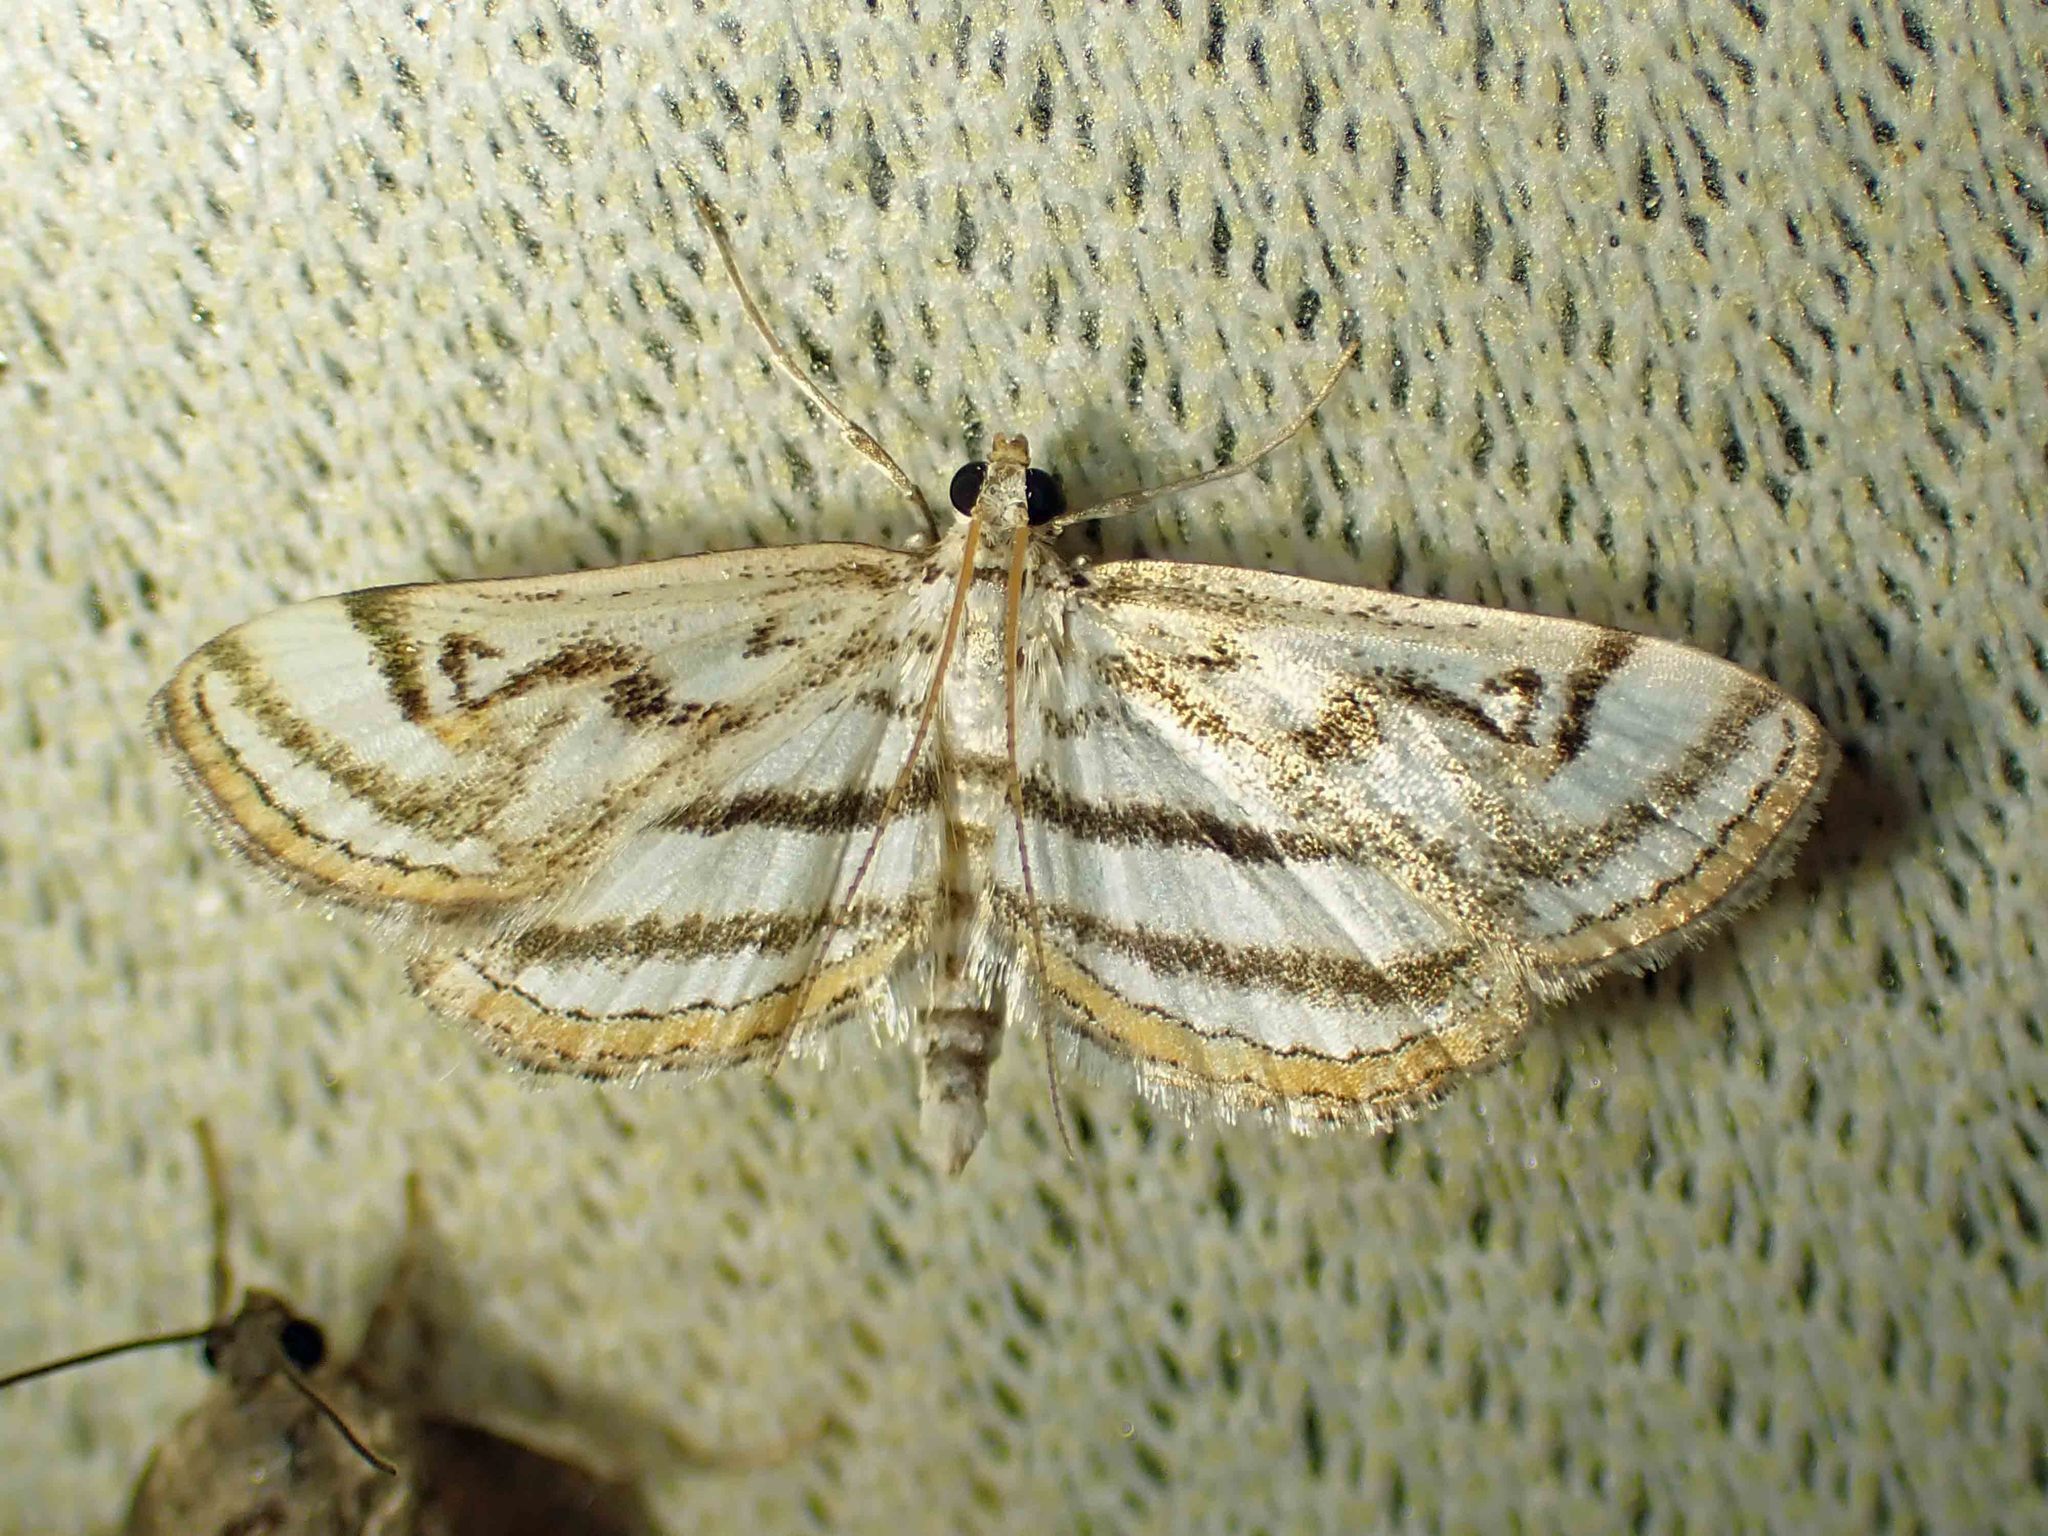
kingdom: Animalia
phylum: Arthropoda
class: Insecta
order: Lepidoptera
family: Crambidae
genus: Parapoynx
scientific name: Parapoynx badiusalis
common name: Chestnut-marked pondweed moth
